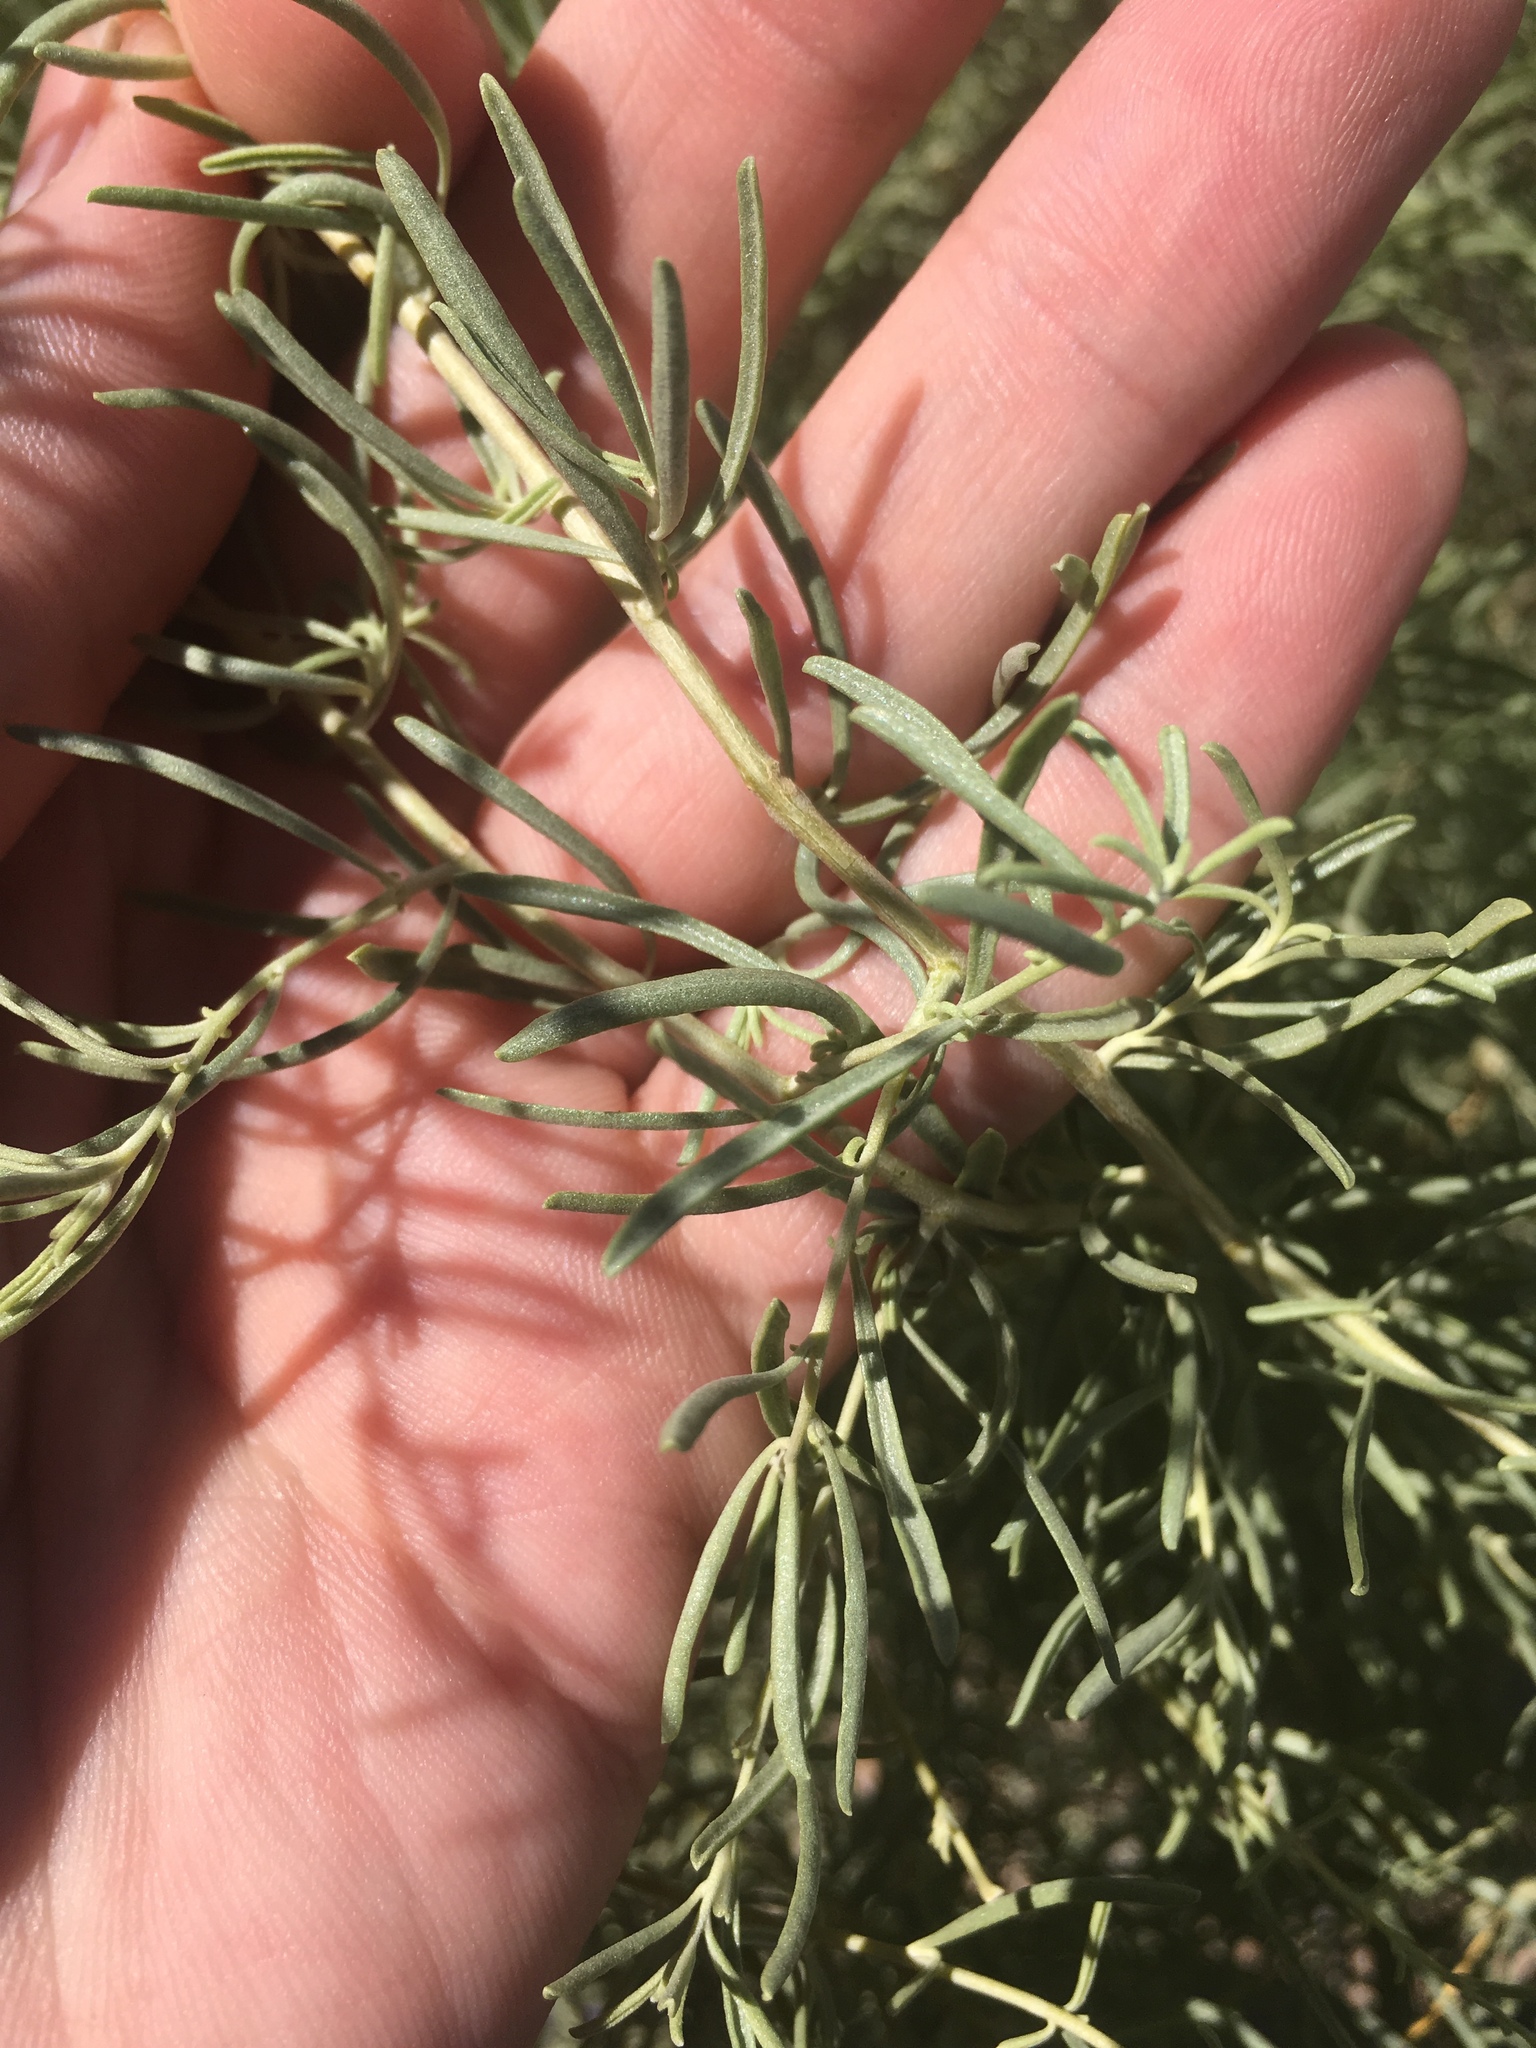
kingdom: Plantae
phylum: Tracheophyta
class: Magnoliopsida
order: Caryophyllales
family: Amaranthaceae
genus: Atriplex
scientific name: Atriplex canescens
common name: Four-wing saltbush
